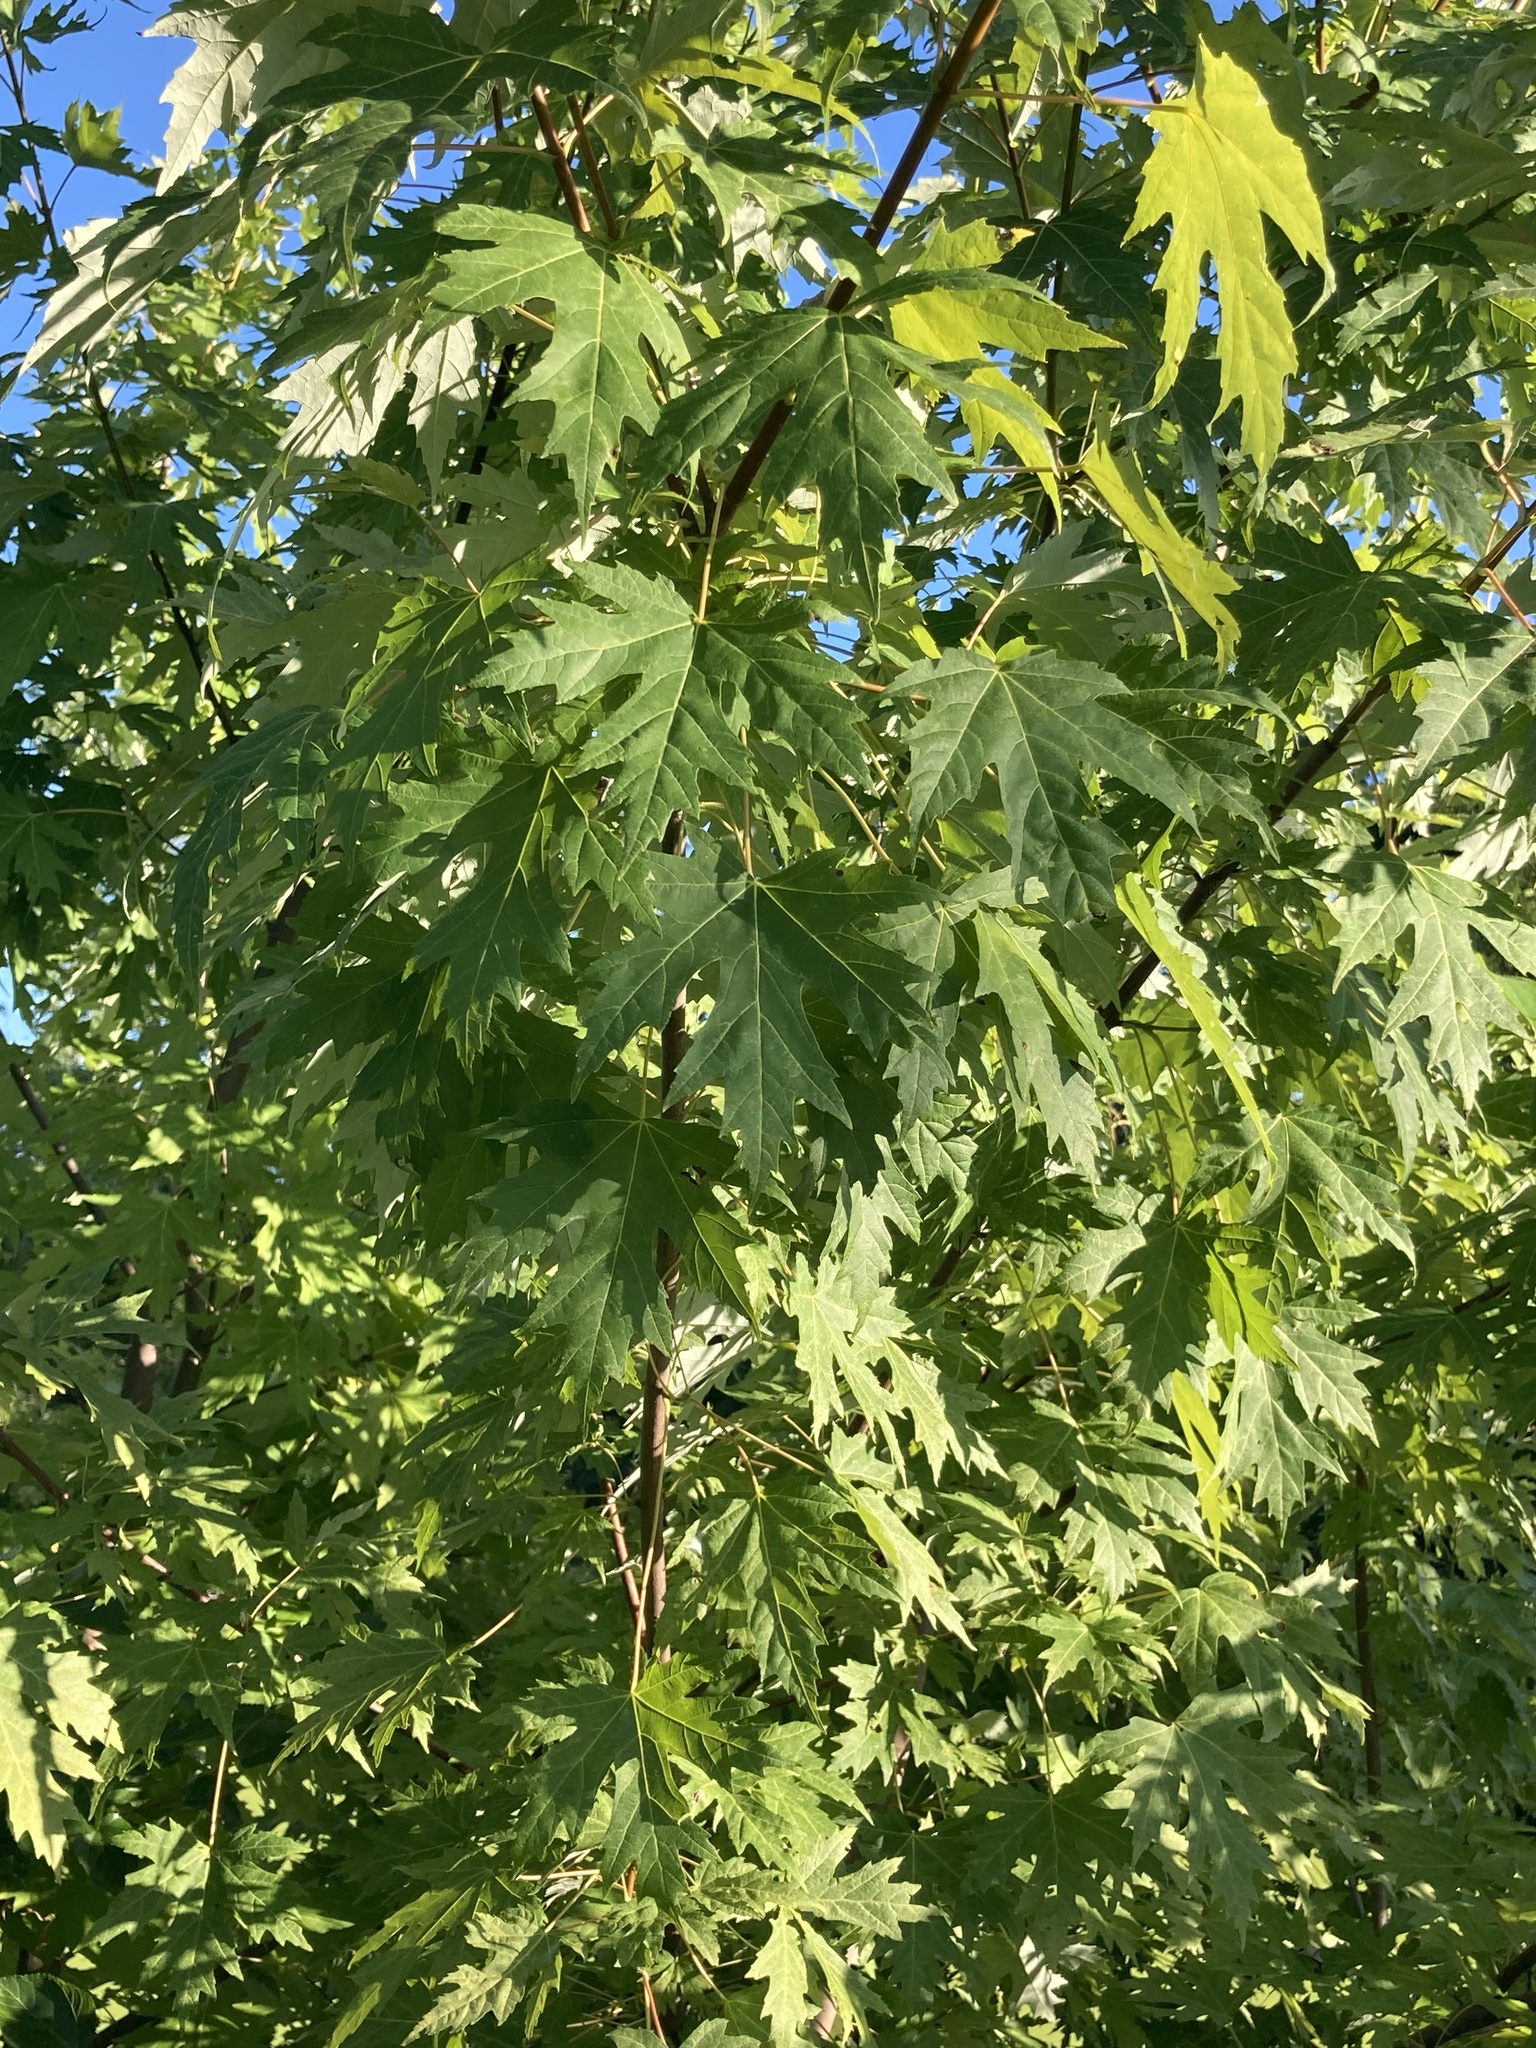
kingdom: Plantae
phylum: Tracheophyta
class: Magnoliopsida
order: Sapindales
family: Sapindaceae
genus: Acer
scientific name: Acer saccharinum
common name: Silver maple
